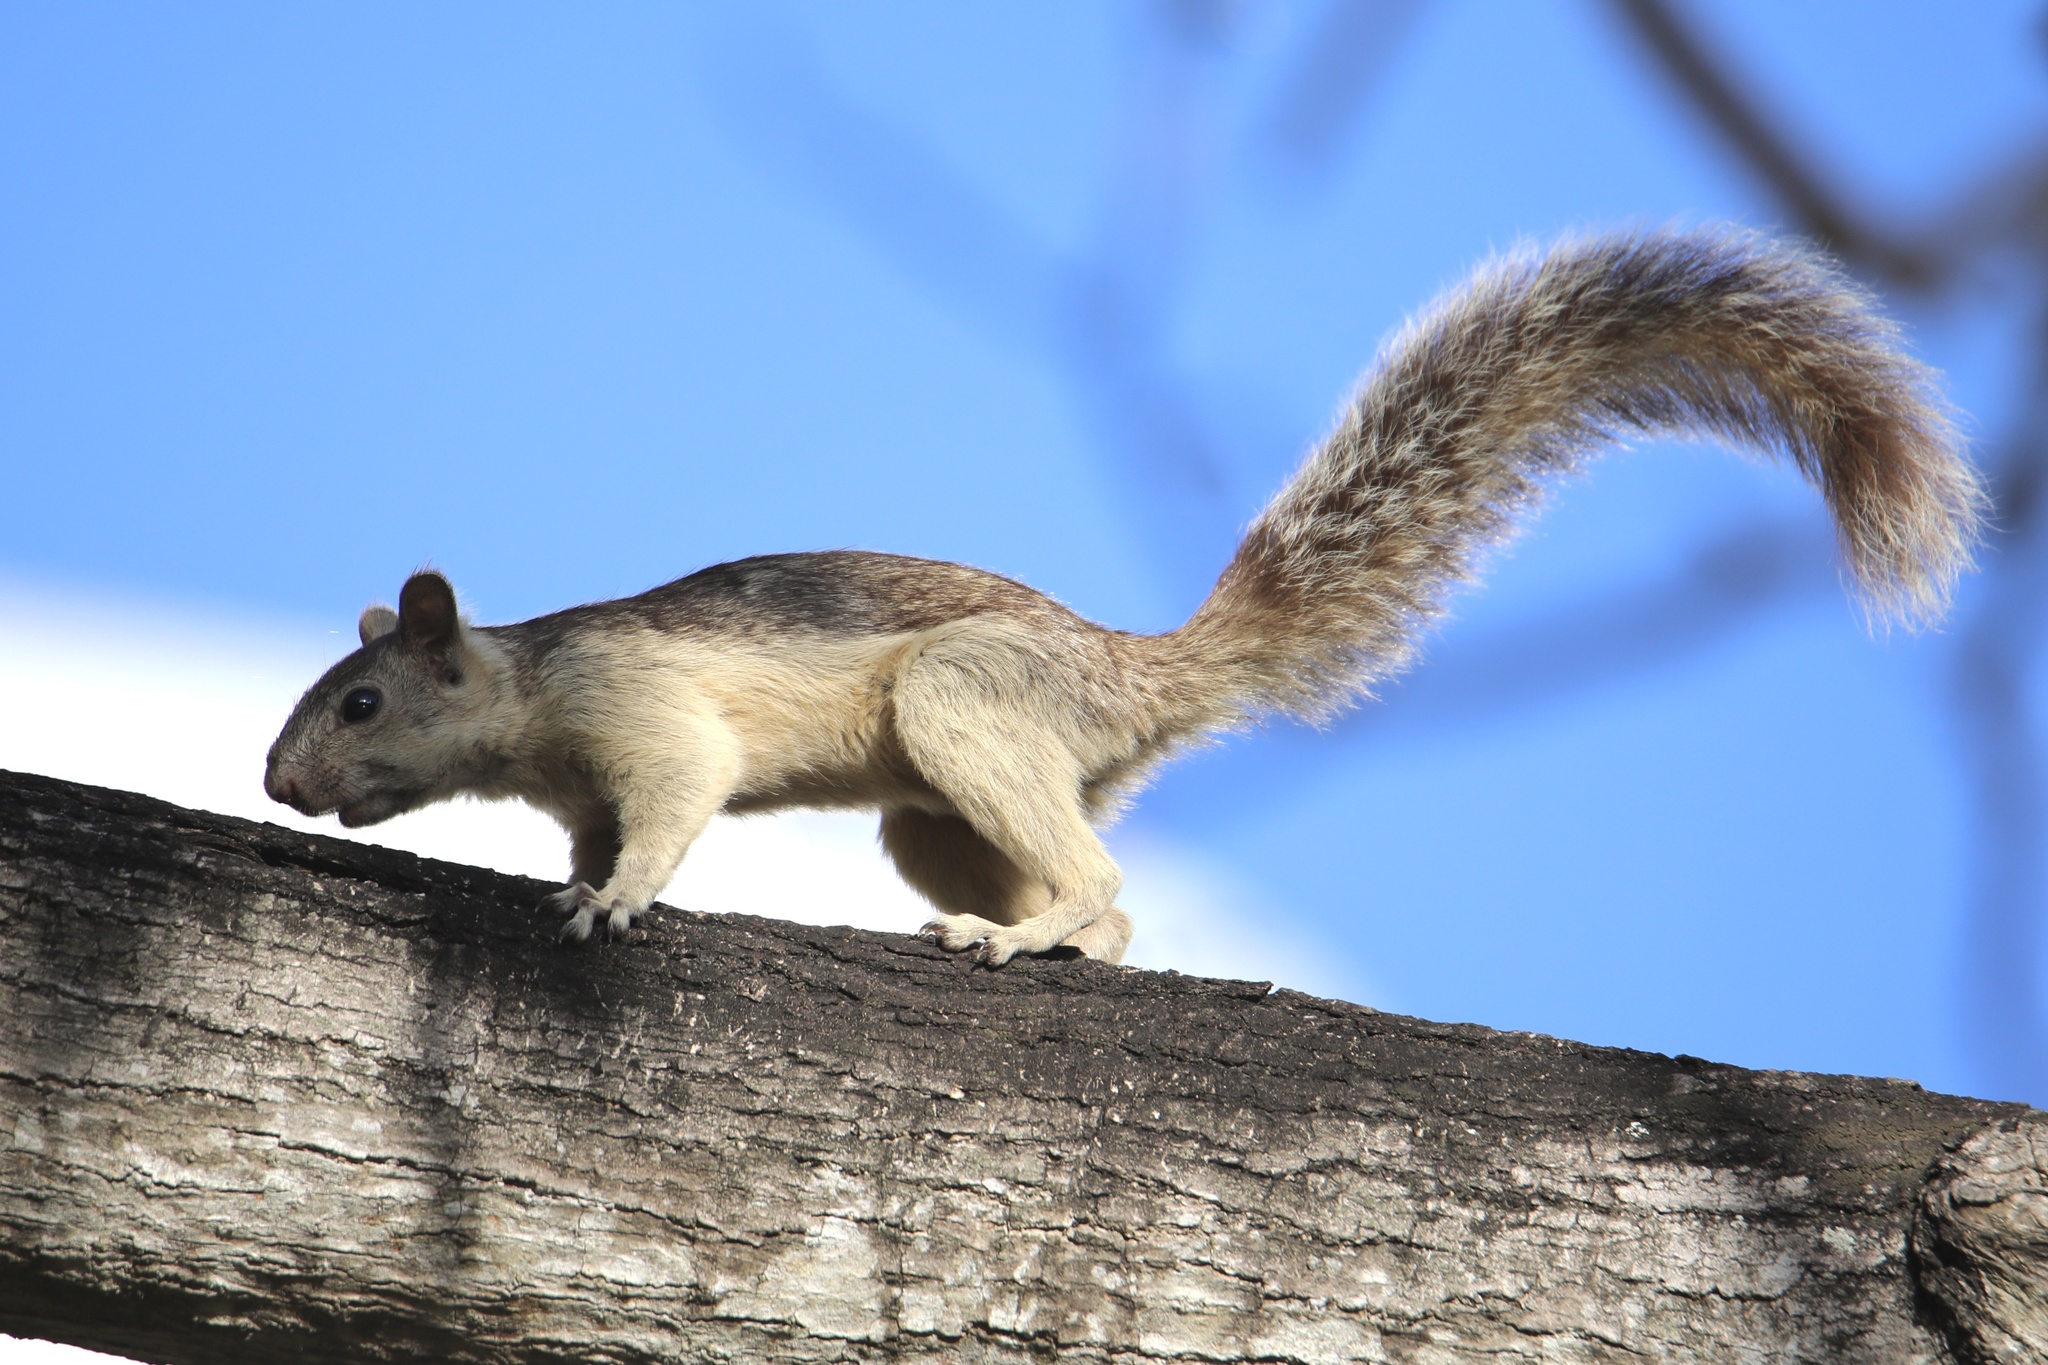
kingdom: Animalia
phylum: Chordata
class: Mammalia
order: Rodentia
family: Sciuridae
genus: Sciurus
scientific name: Sciurus variegatoides
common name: Variegated squirrel
